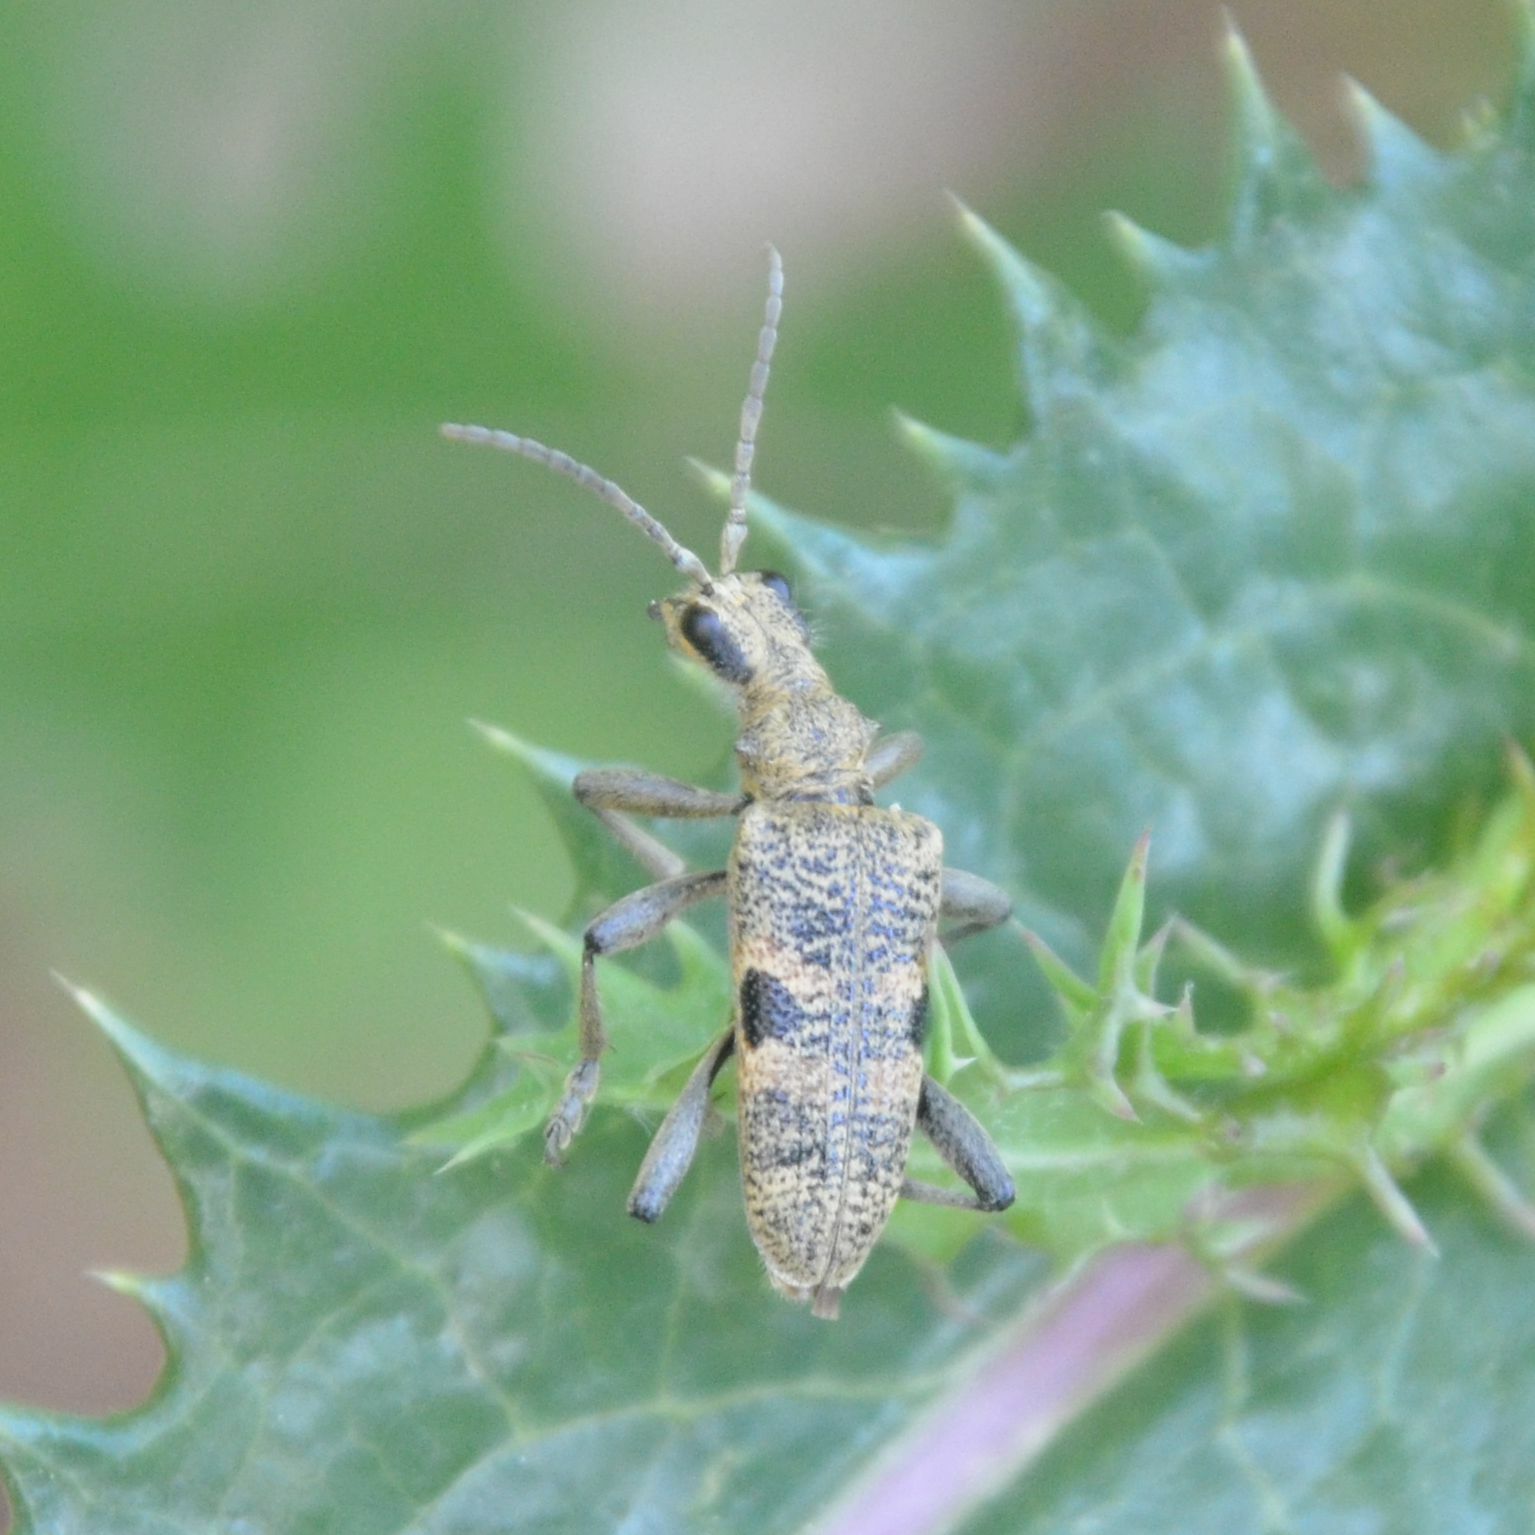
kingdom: Animalia
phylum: Arthropoda
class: Insecta
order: Coleoptera
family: Cerambycidae
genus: Rhagium
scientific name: Rhagium mordax
